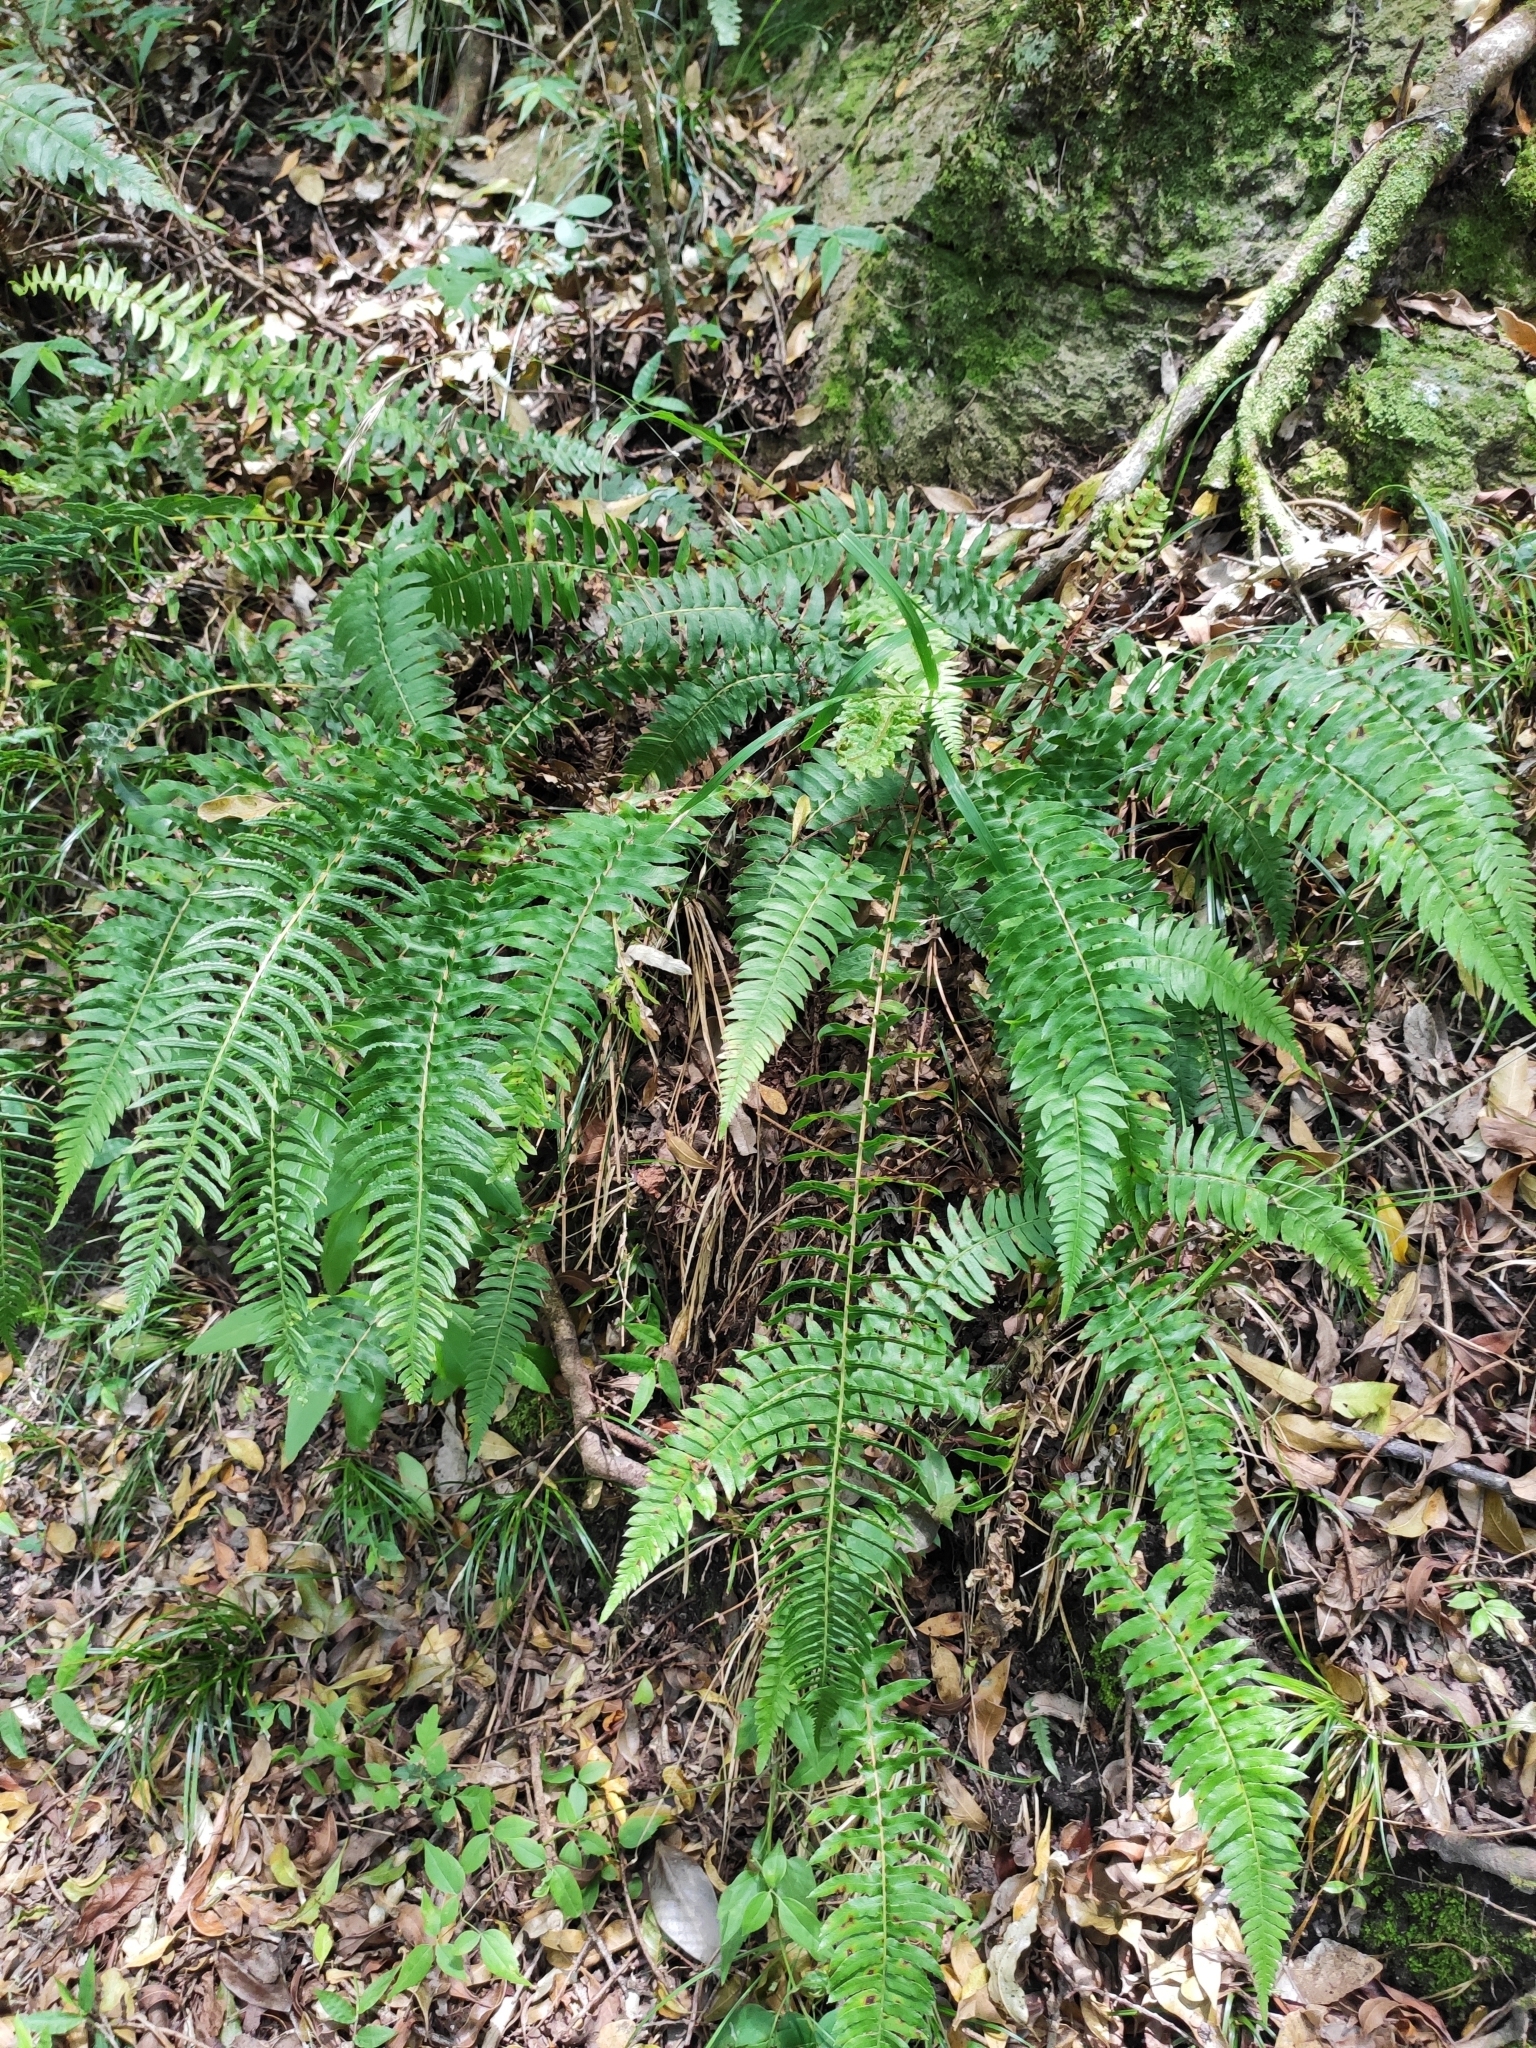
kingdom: Plantae
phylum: Tracheophyta
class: Polypodiopsida
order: Polypodiales
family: Blechnaceae
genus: Blechnum
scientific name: Blechnum auriculatum
